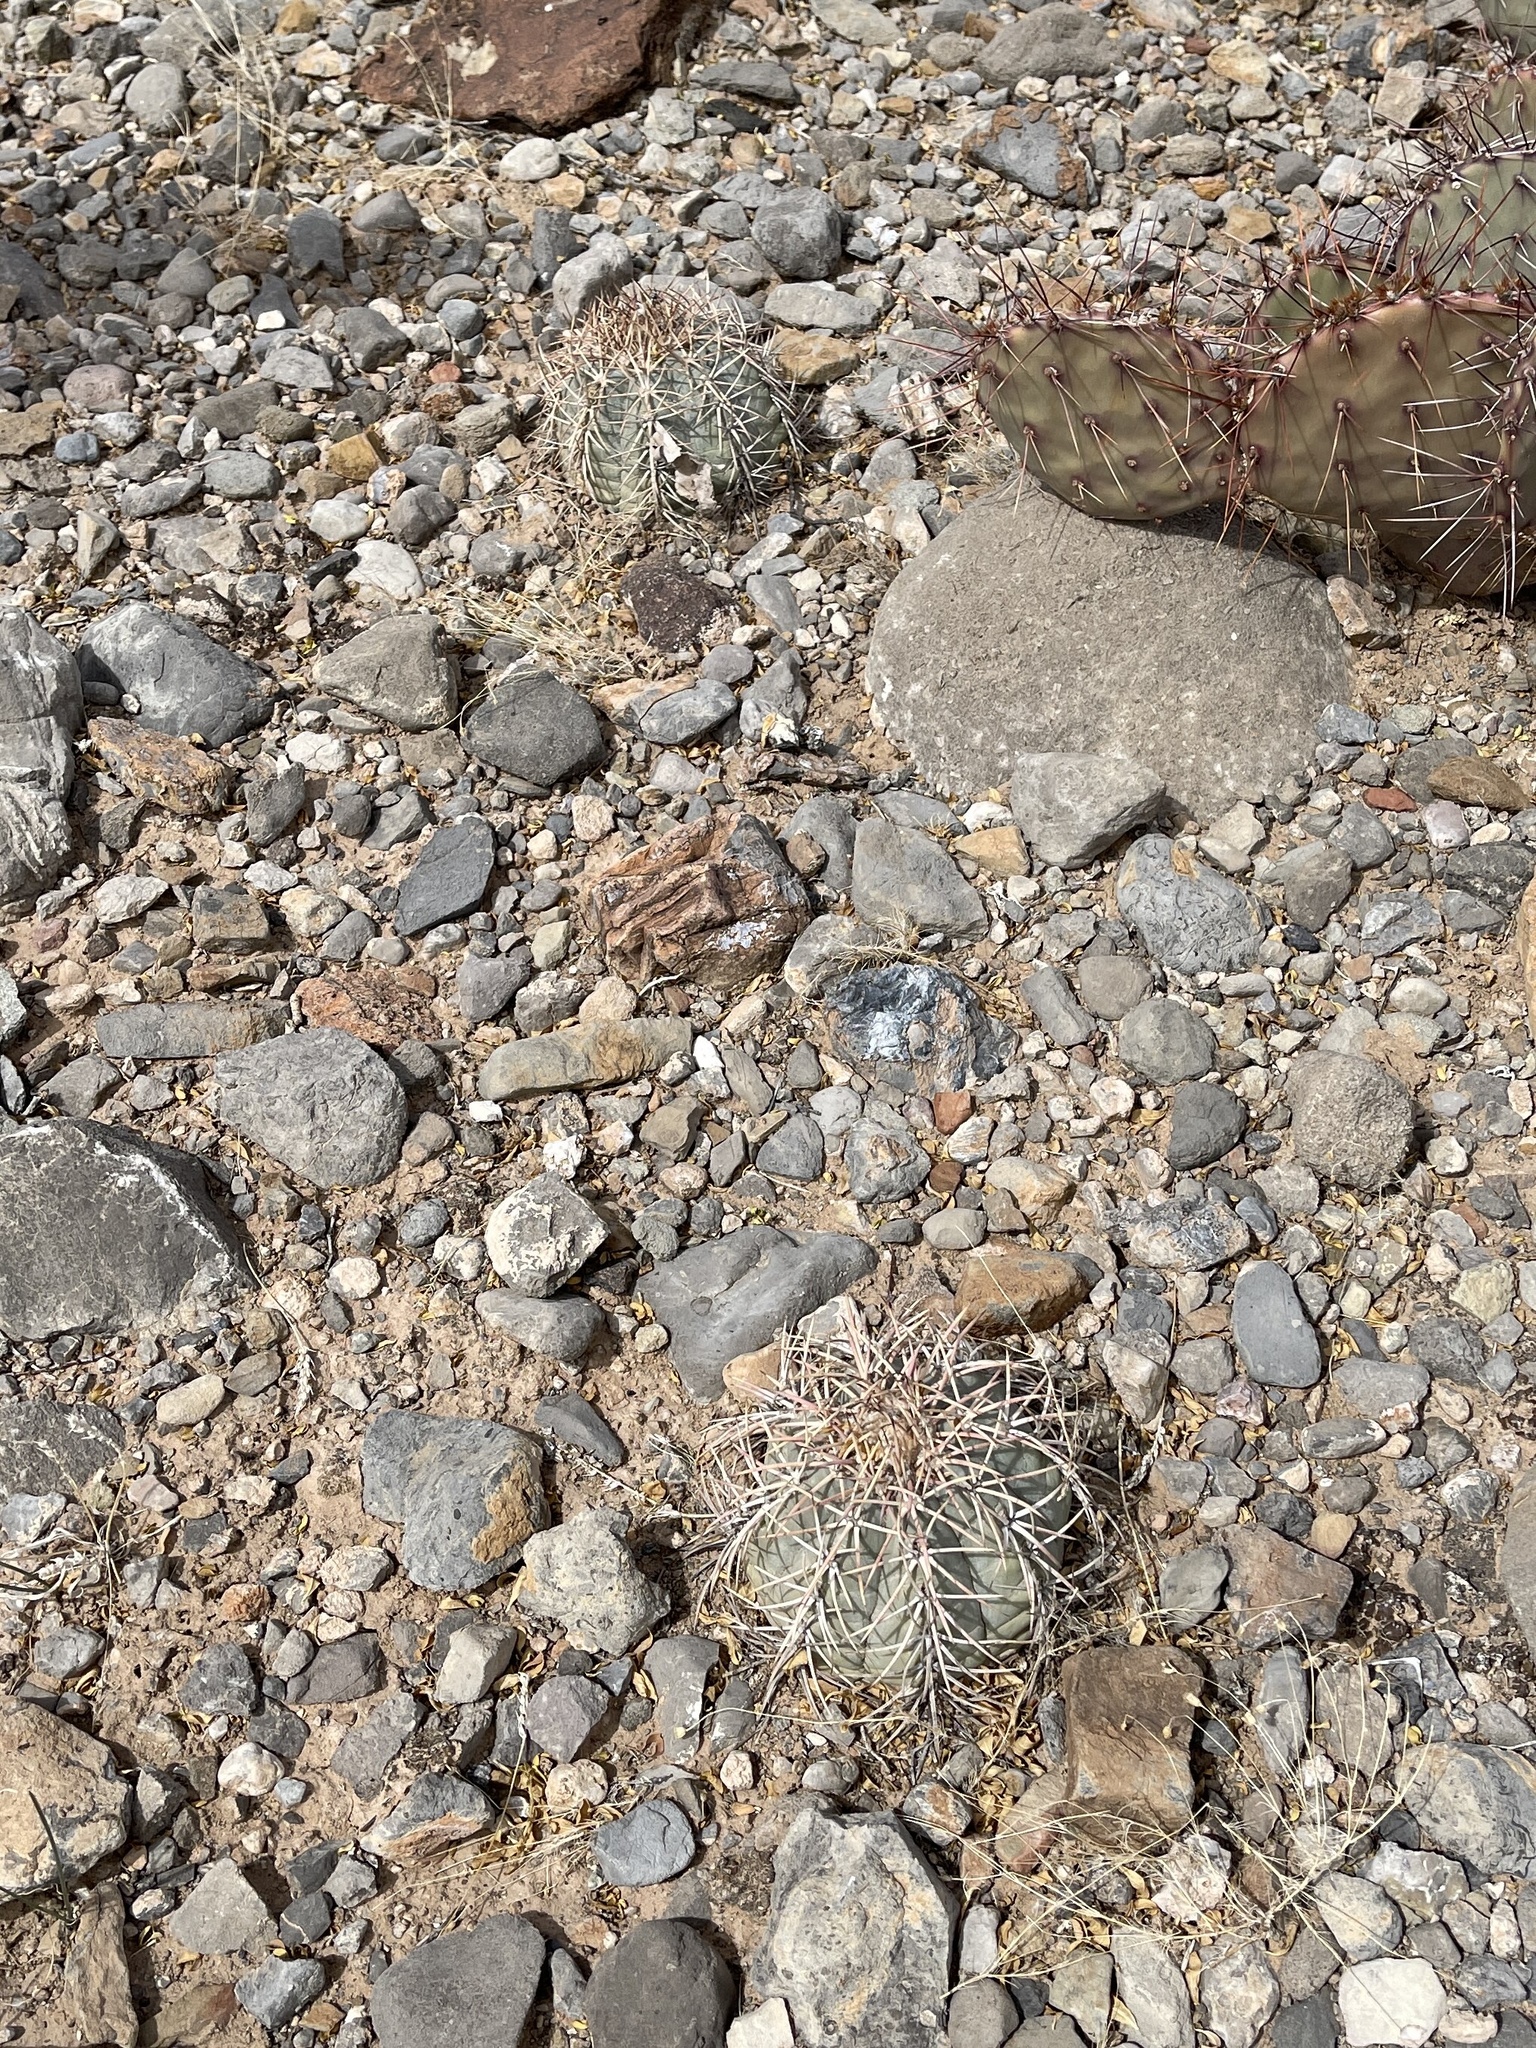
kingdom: Plantae
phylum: Tracheophyta
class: Magnoliopsida
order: Caryophyllales
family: Cactaceae
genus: Echinocactus
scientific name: Echinocactus horizonthalonius
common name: Devilshead
